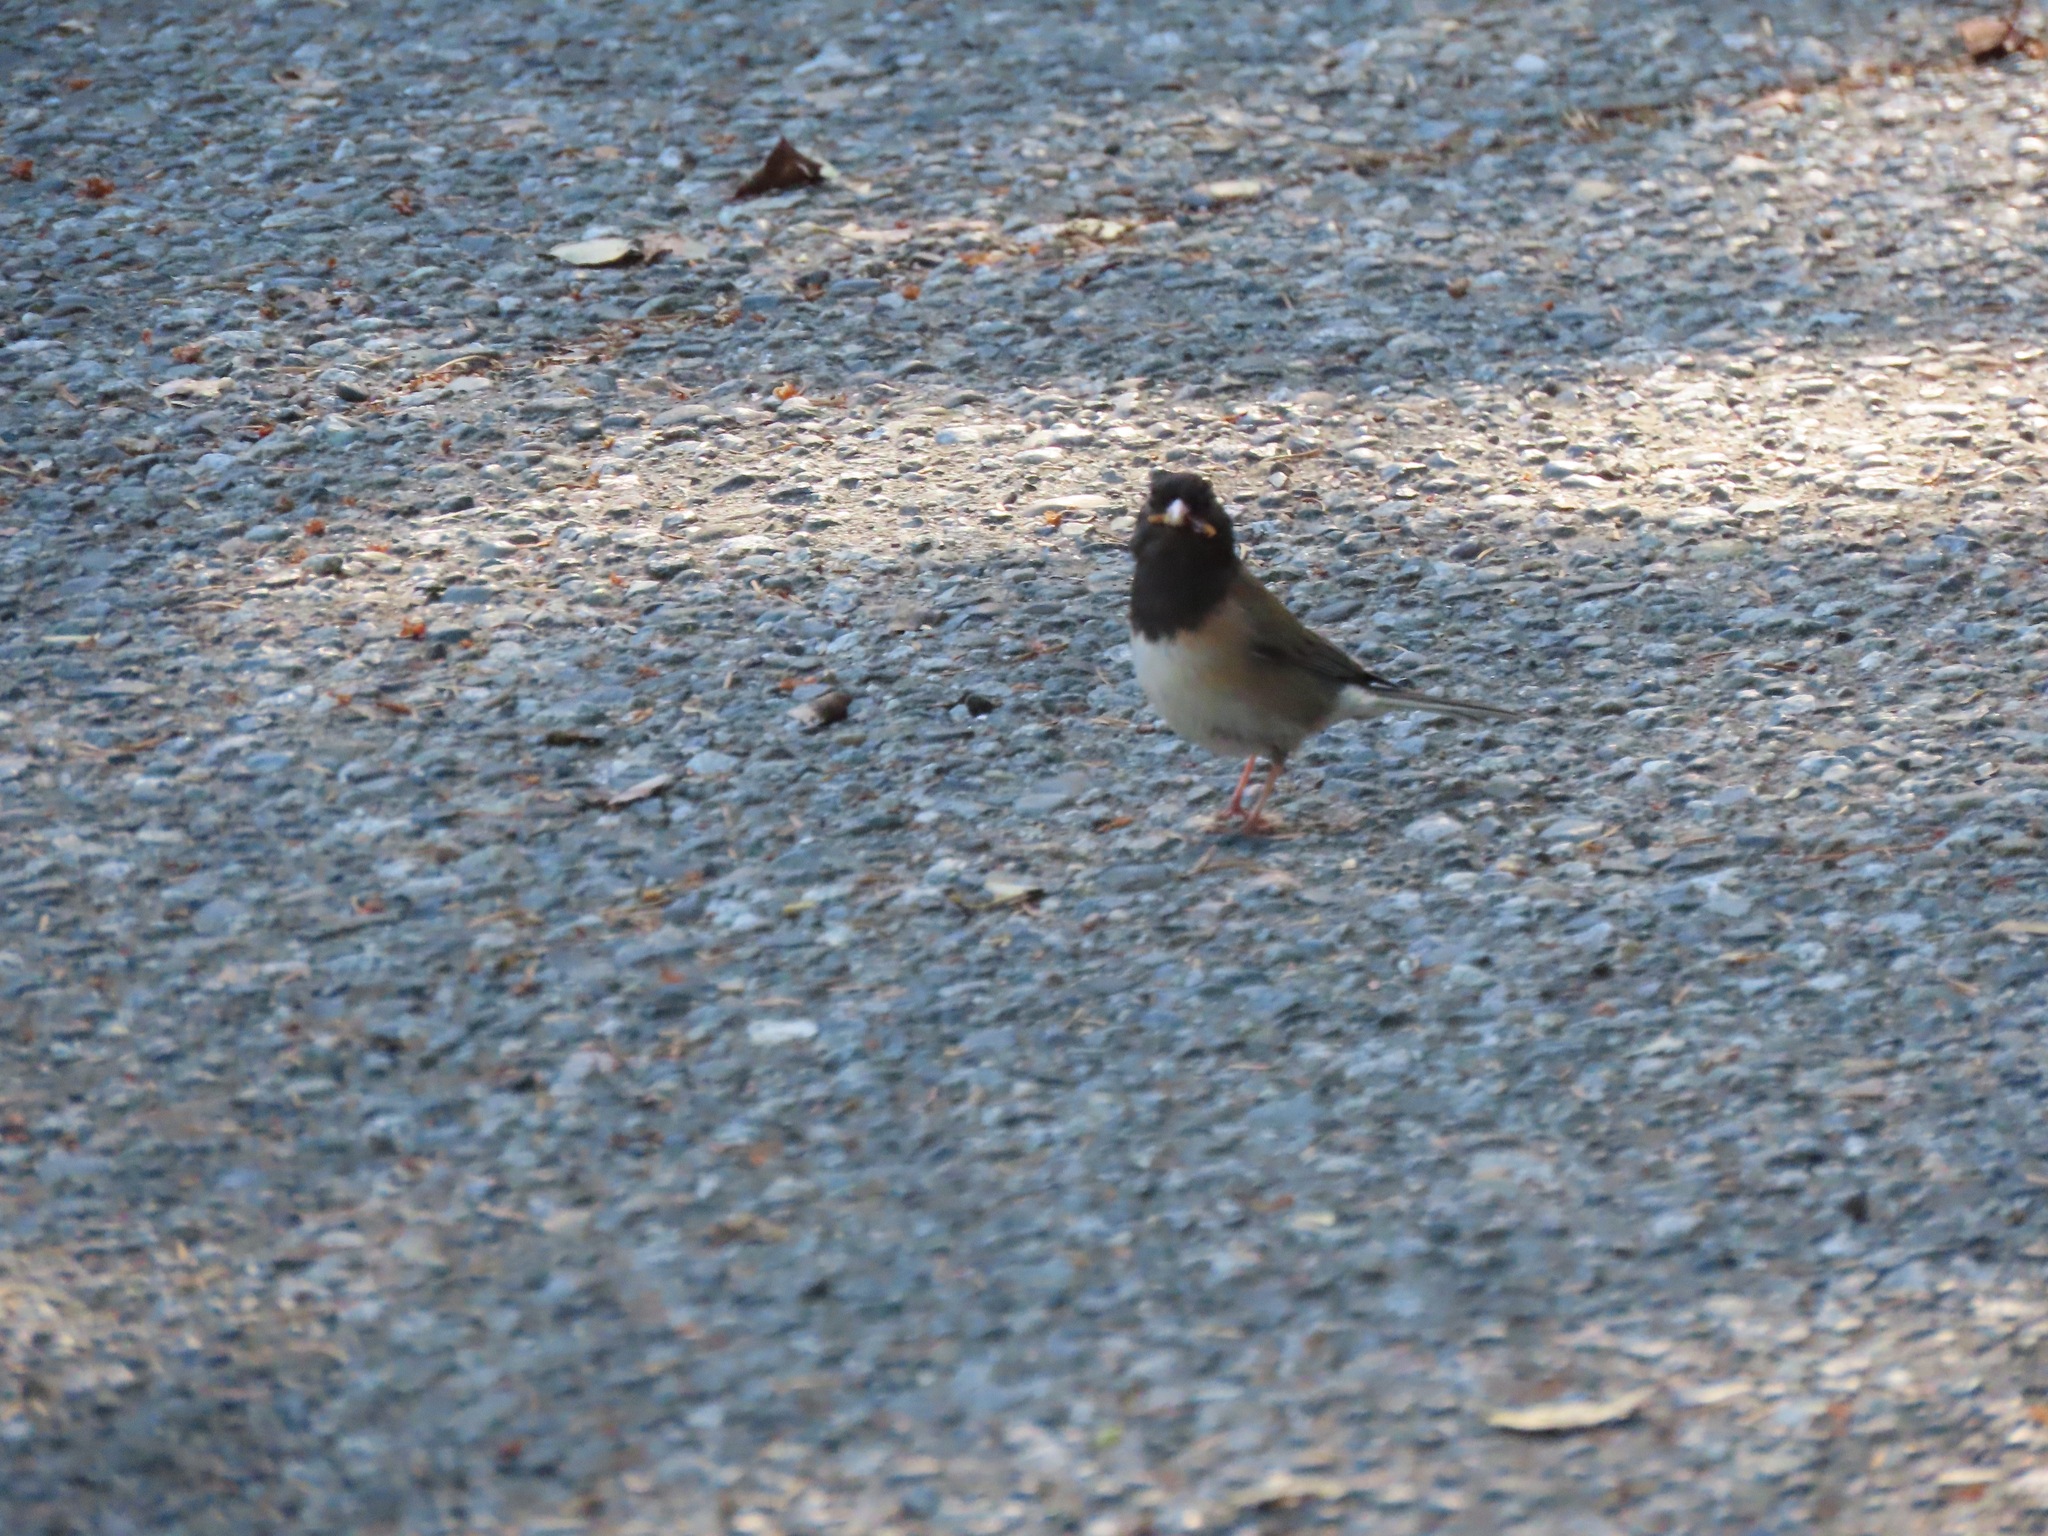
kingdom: Animalia
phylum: Chordata
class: Aves
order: Passeriformes
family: Passerellidae
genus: Junco
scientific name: Junco hyemalis
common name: Dark-eyed junco
